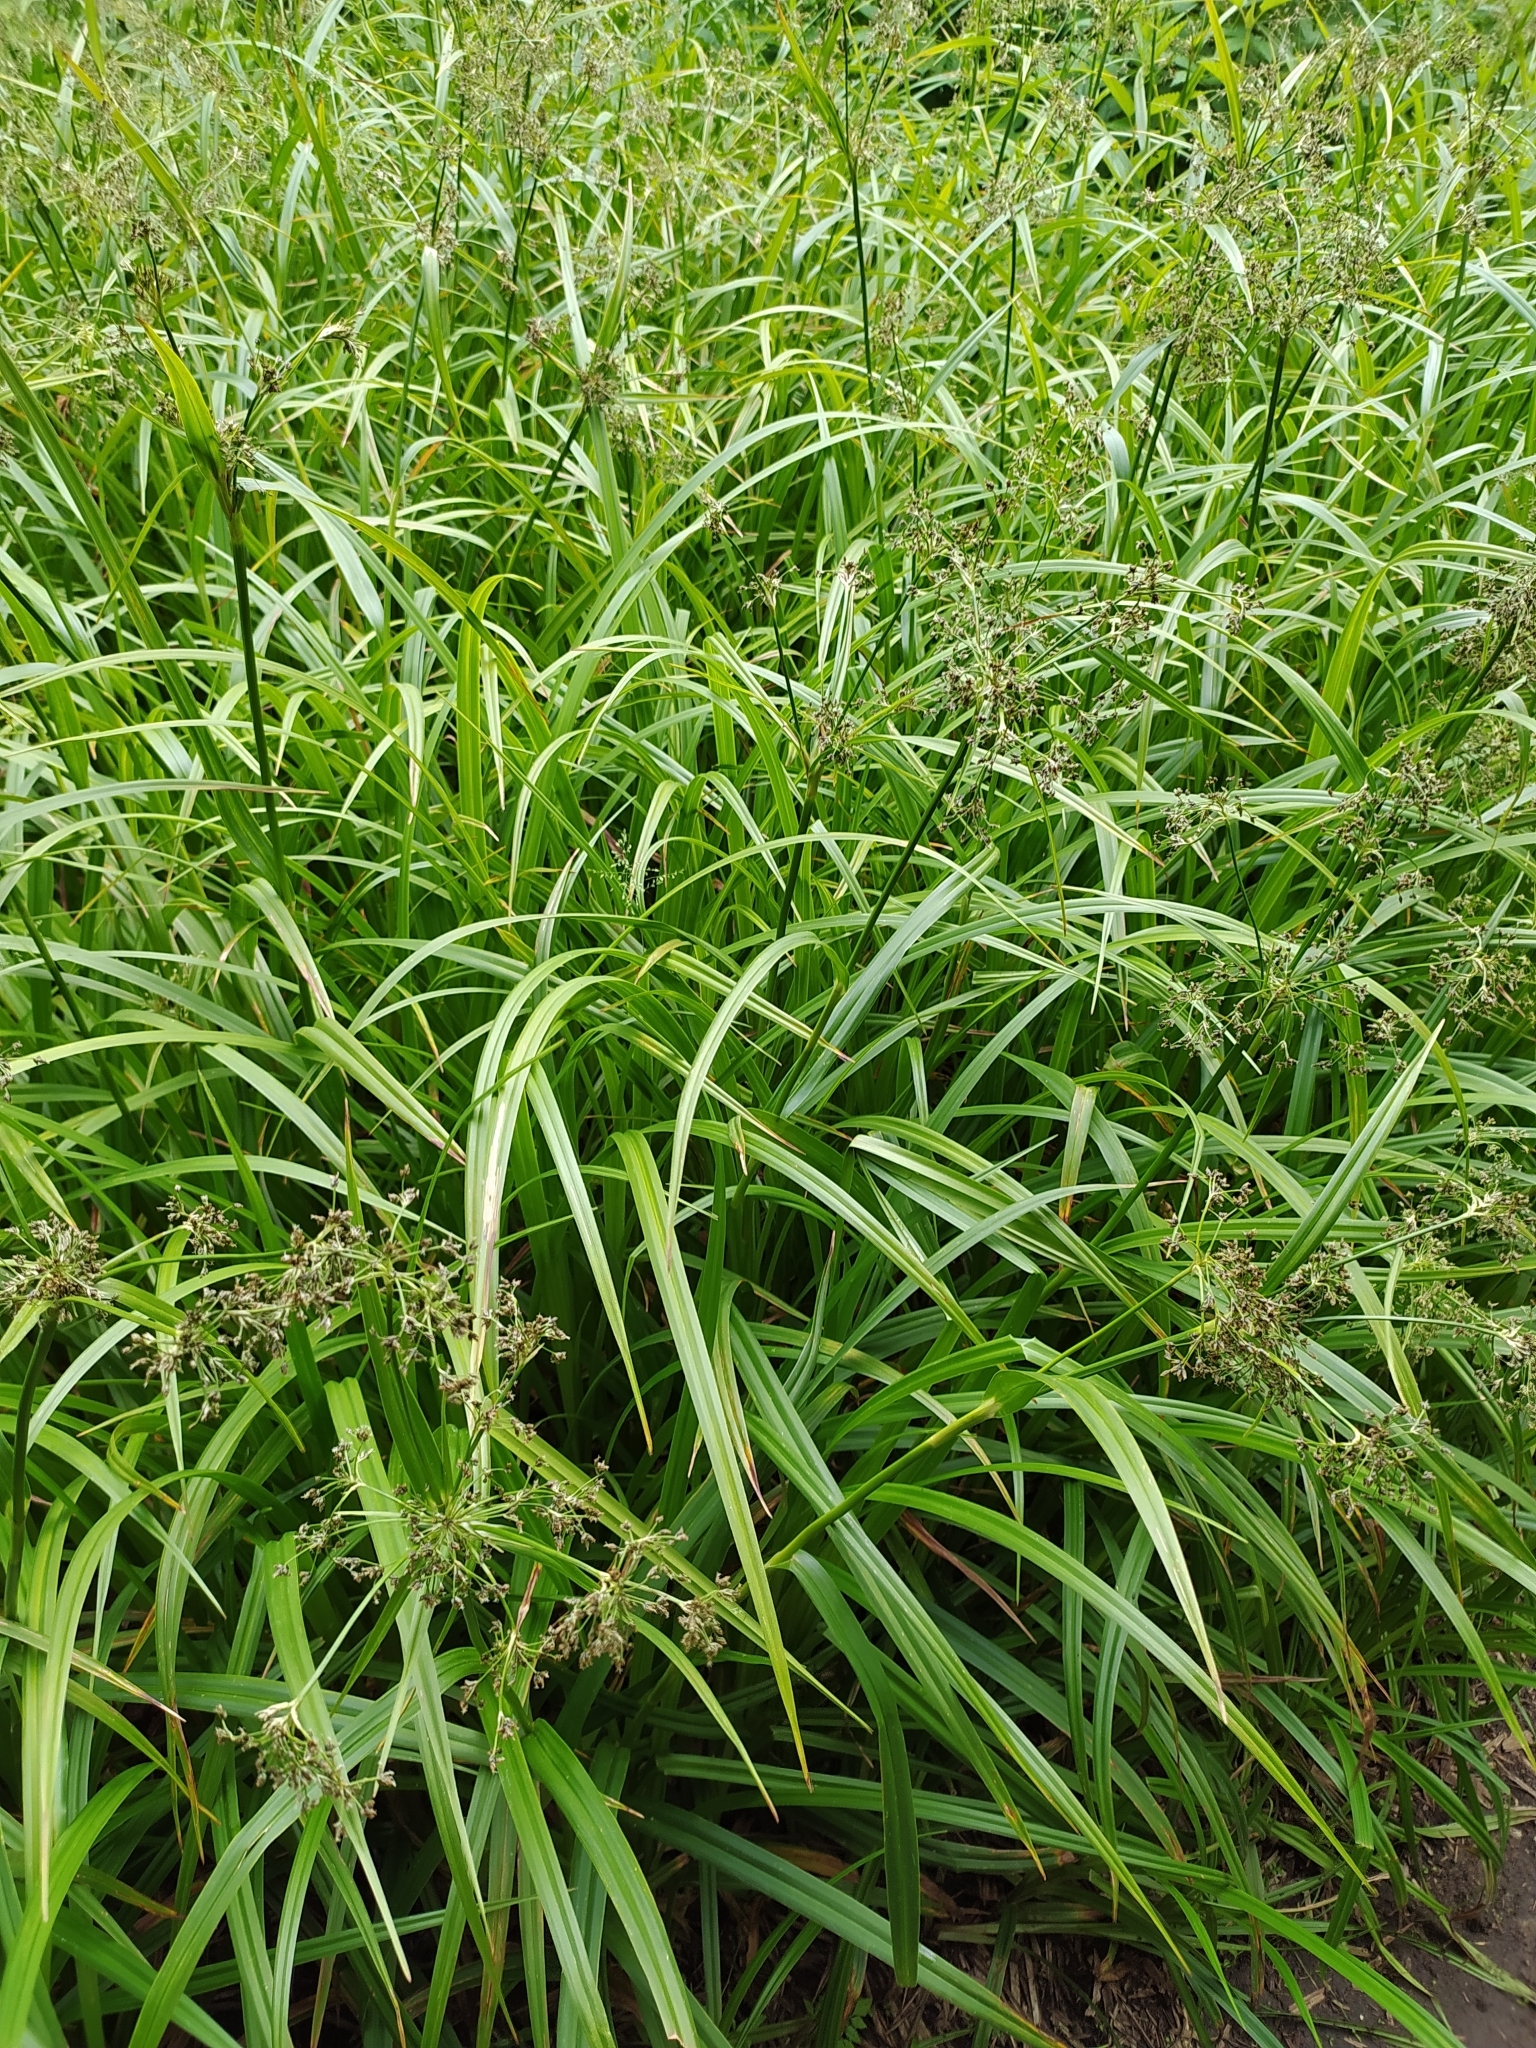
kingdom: Plantae
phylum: Tracheophyta
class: Liliopsida
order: Poales
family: Cyperaceae
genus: Scirpus
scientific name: Scirpus sylvaticus
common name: Wood club-rush
